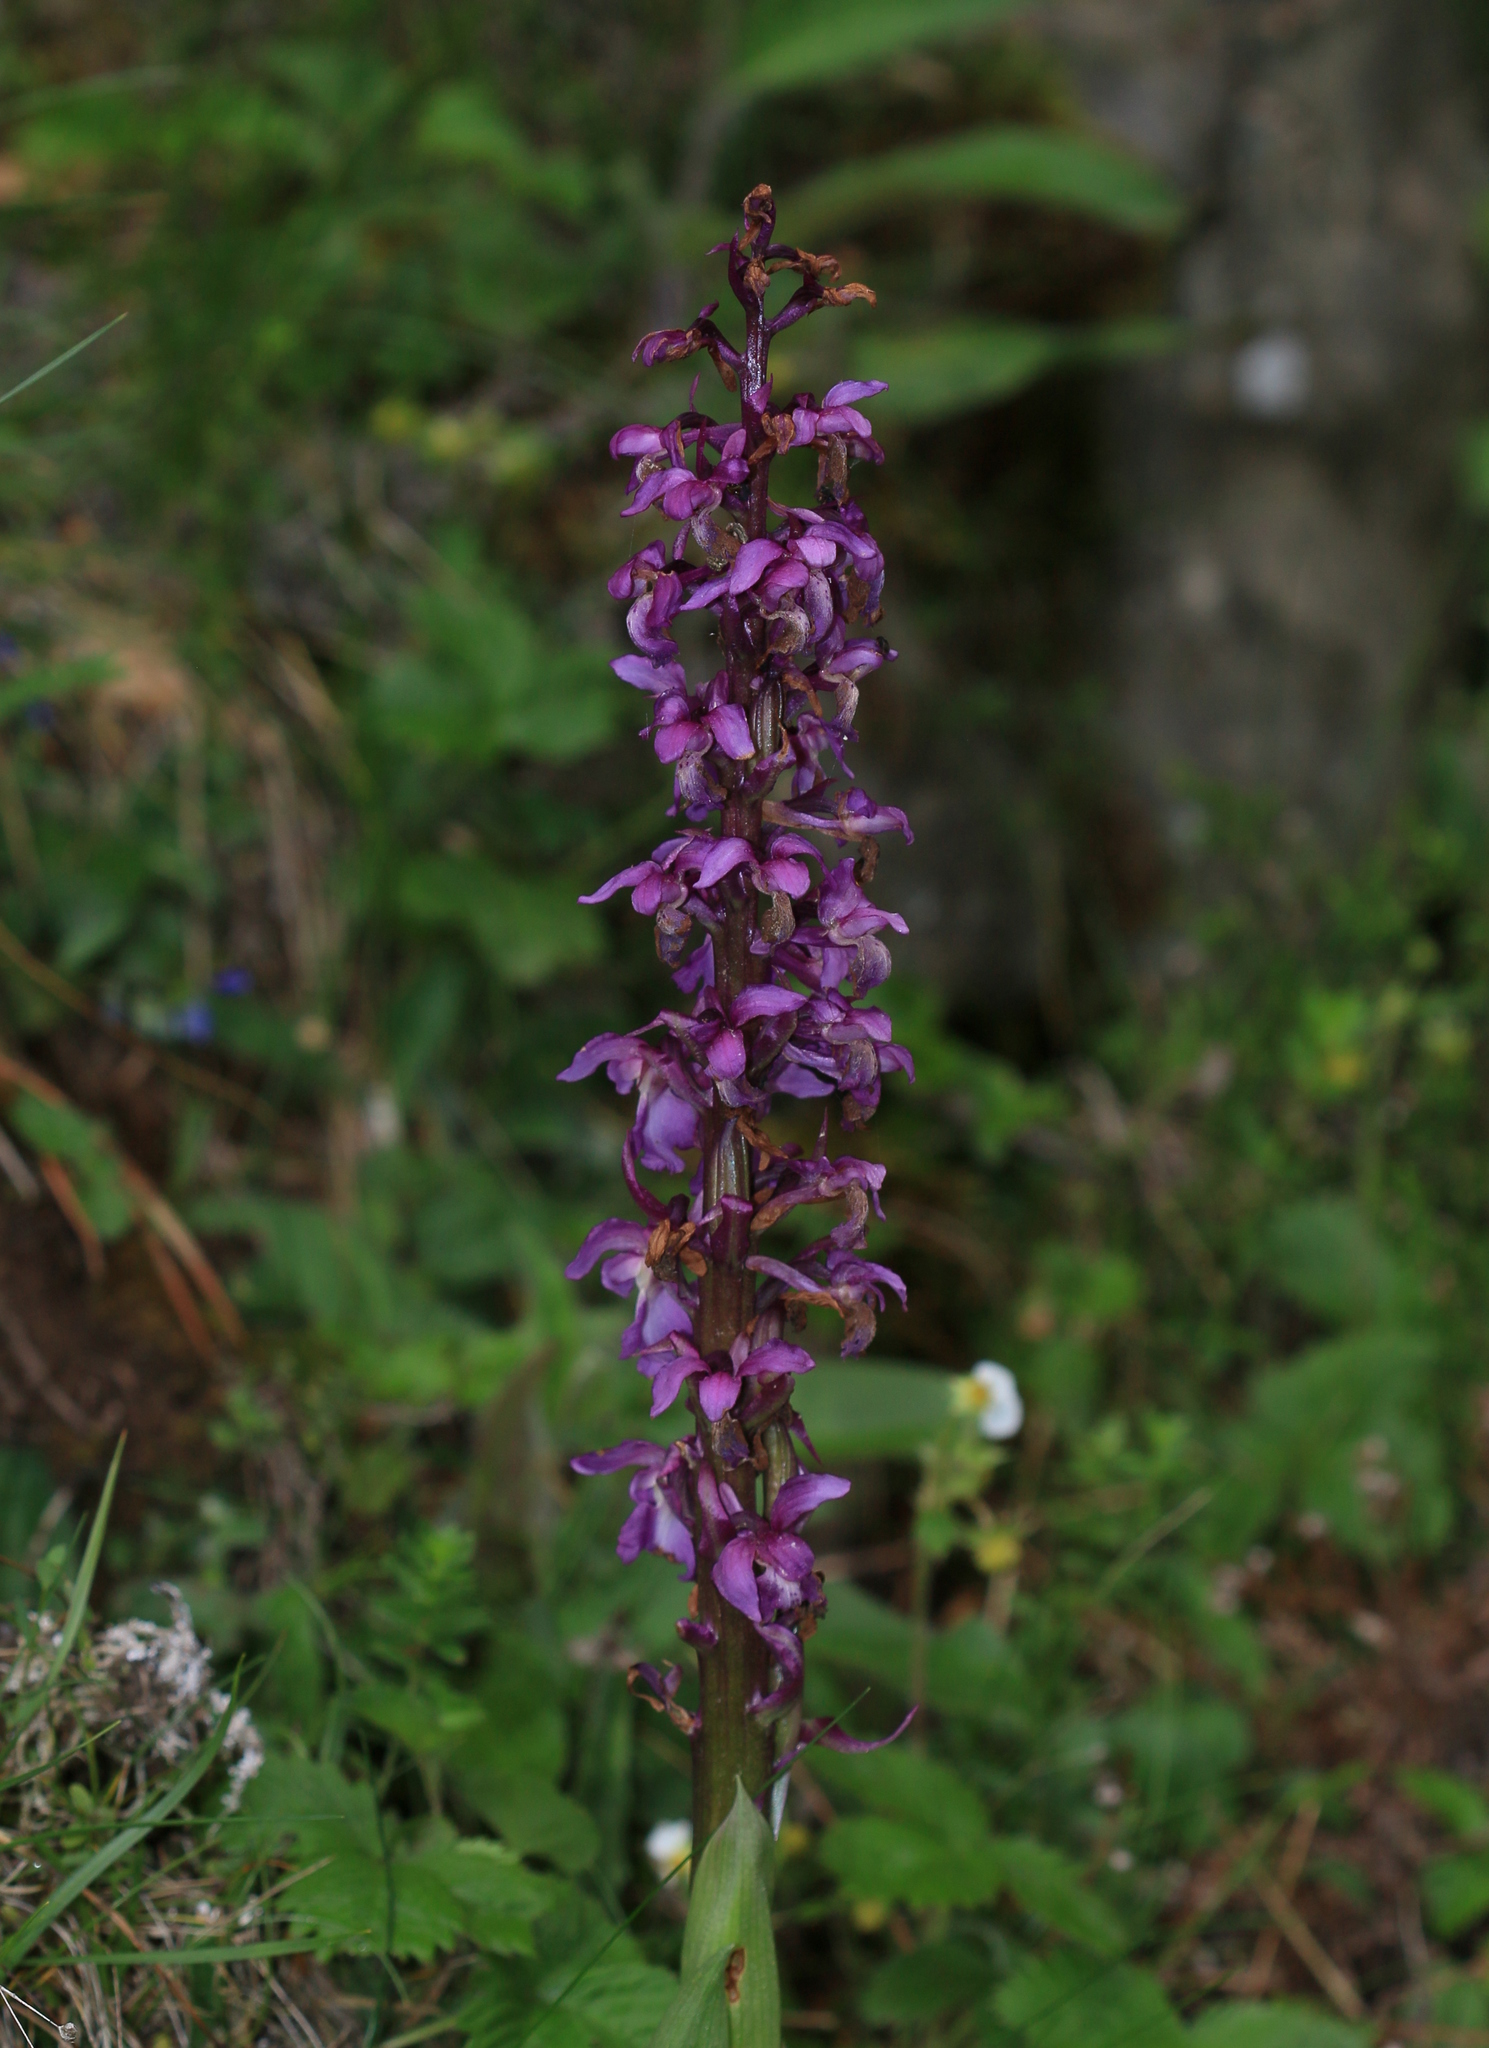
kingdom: Plantae
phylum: Tracheophyta
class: Liliopsida
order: Asparagales
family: Orchidaceae
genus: Orchis
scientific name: Orchis mascula
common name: Early-purple orchid
